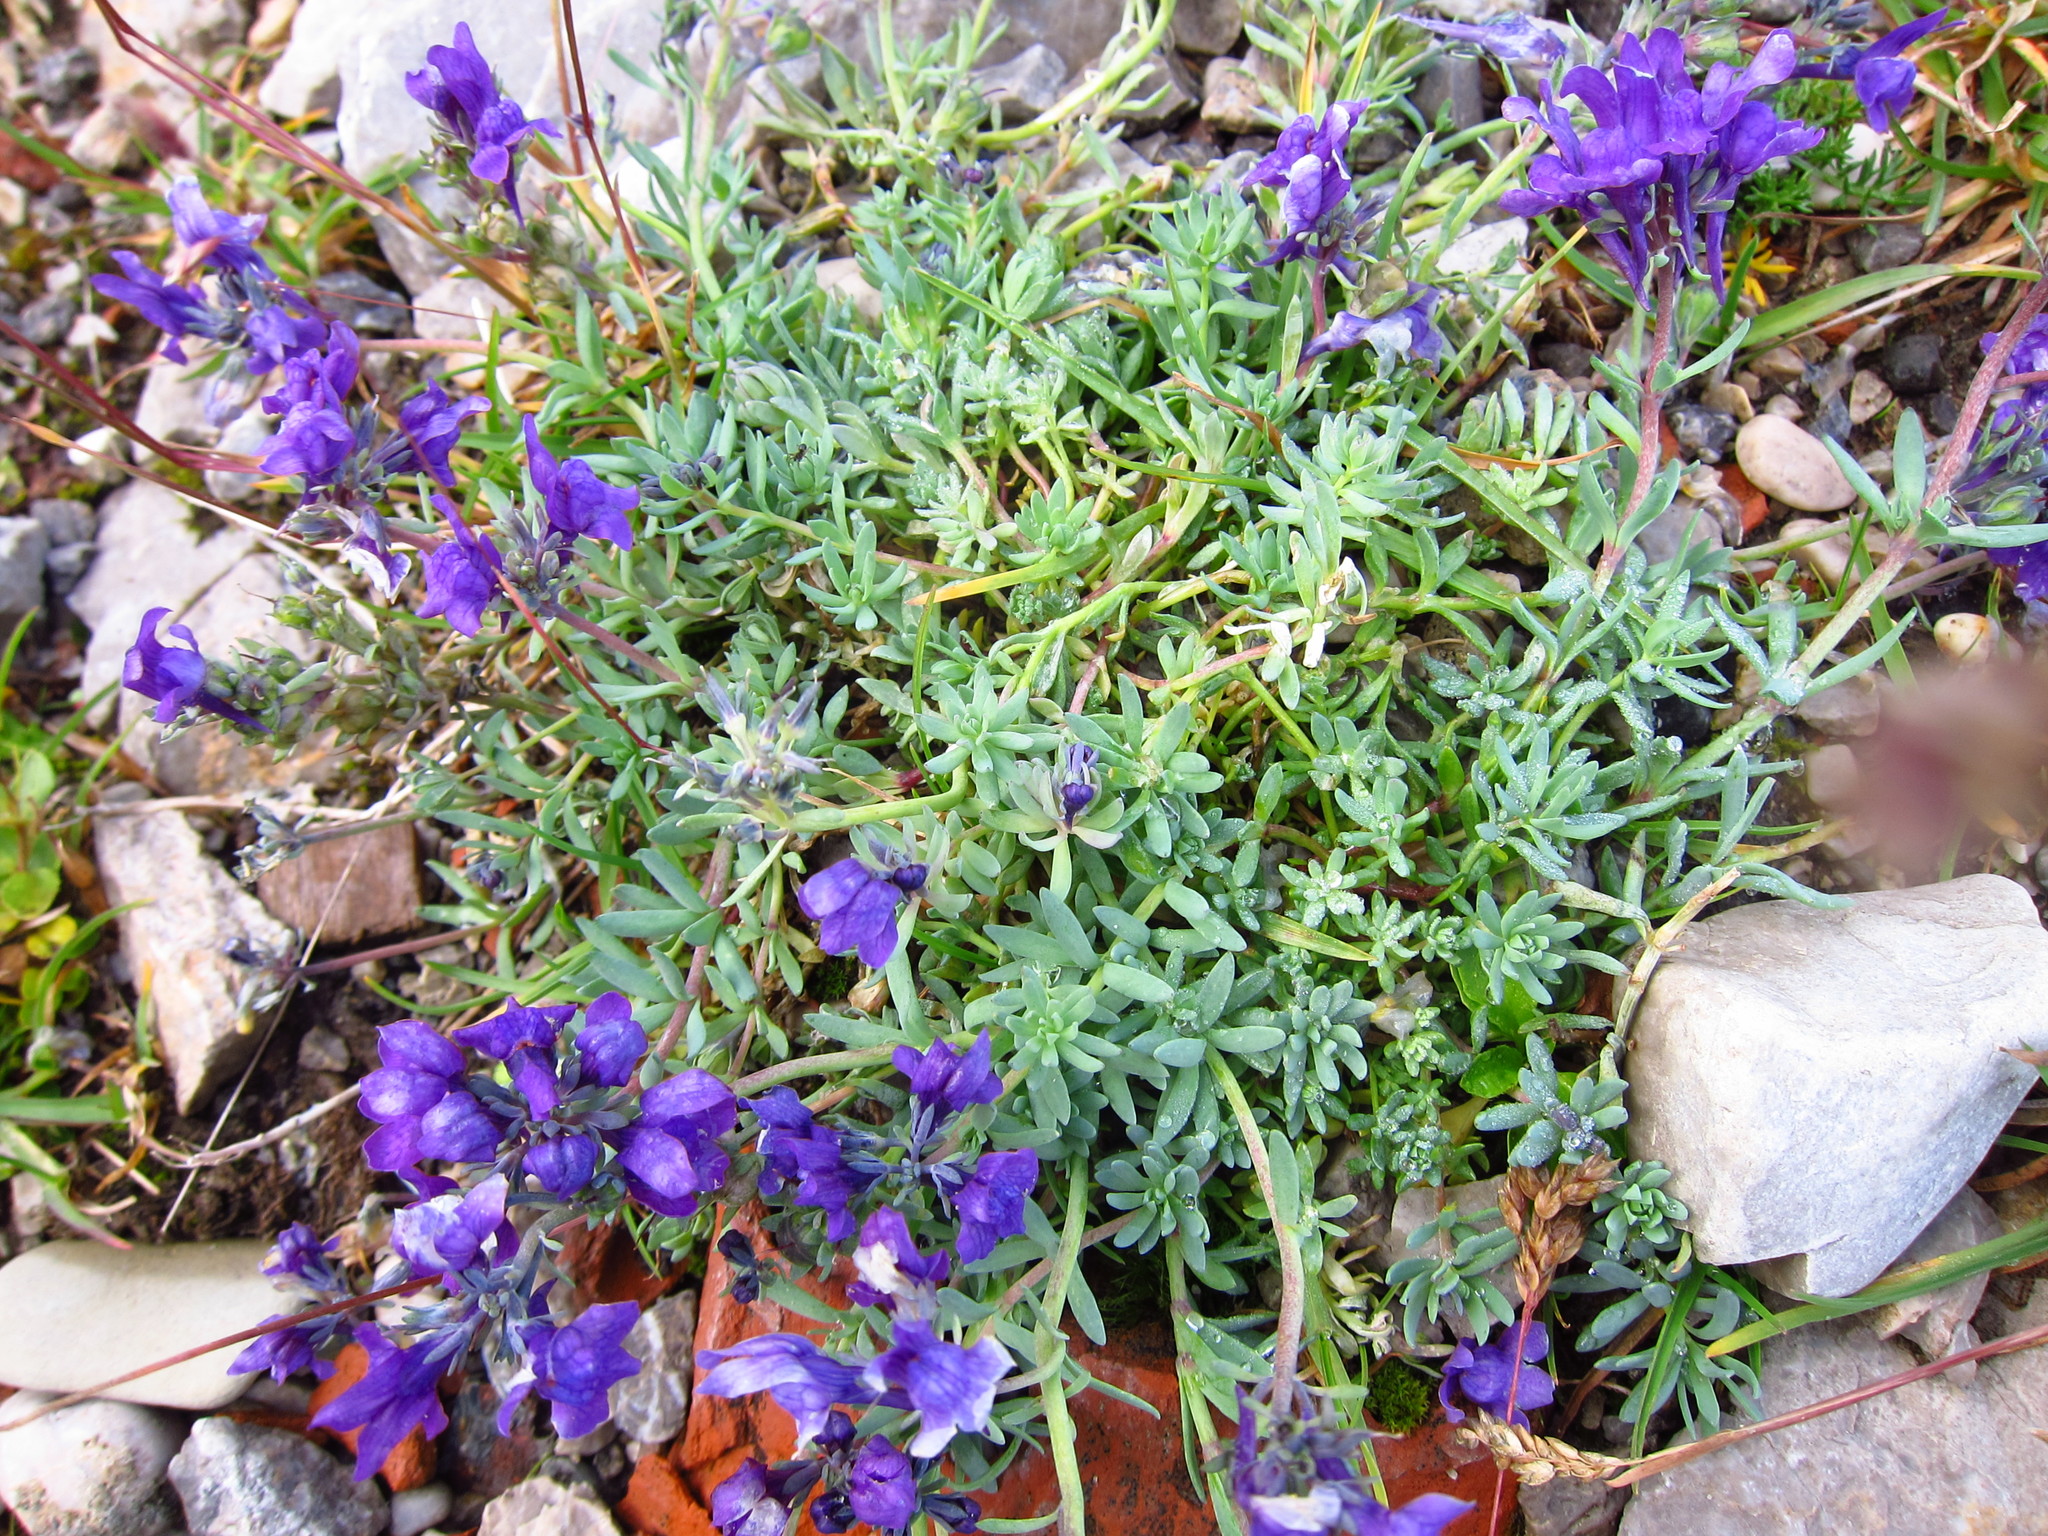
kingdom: Plantae
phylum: Tracheophyta
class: Magnoliopsida
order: Lamiales
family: Plantaginaceae
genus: Linaria
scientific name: Linaria alpina
